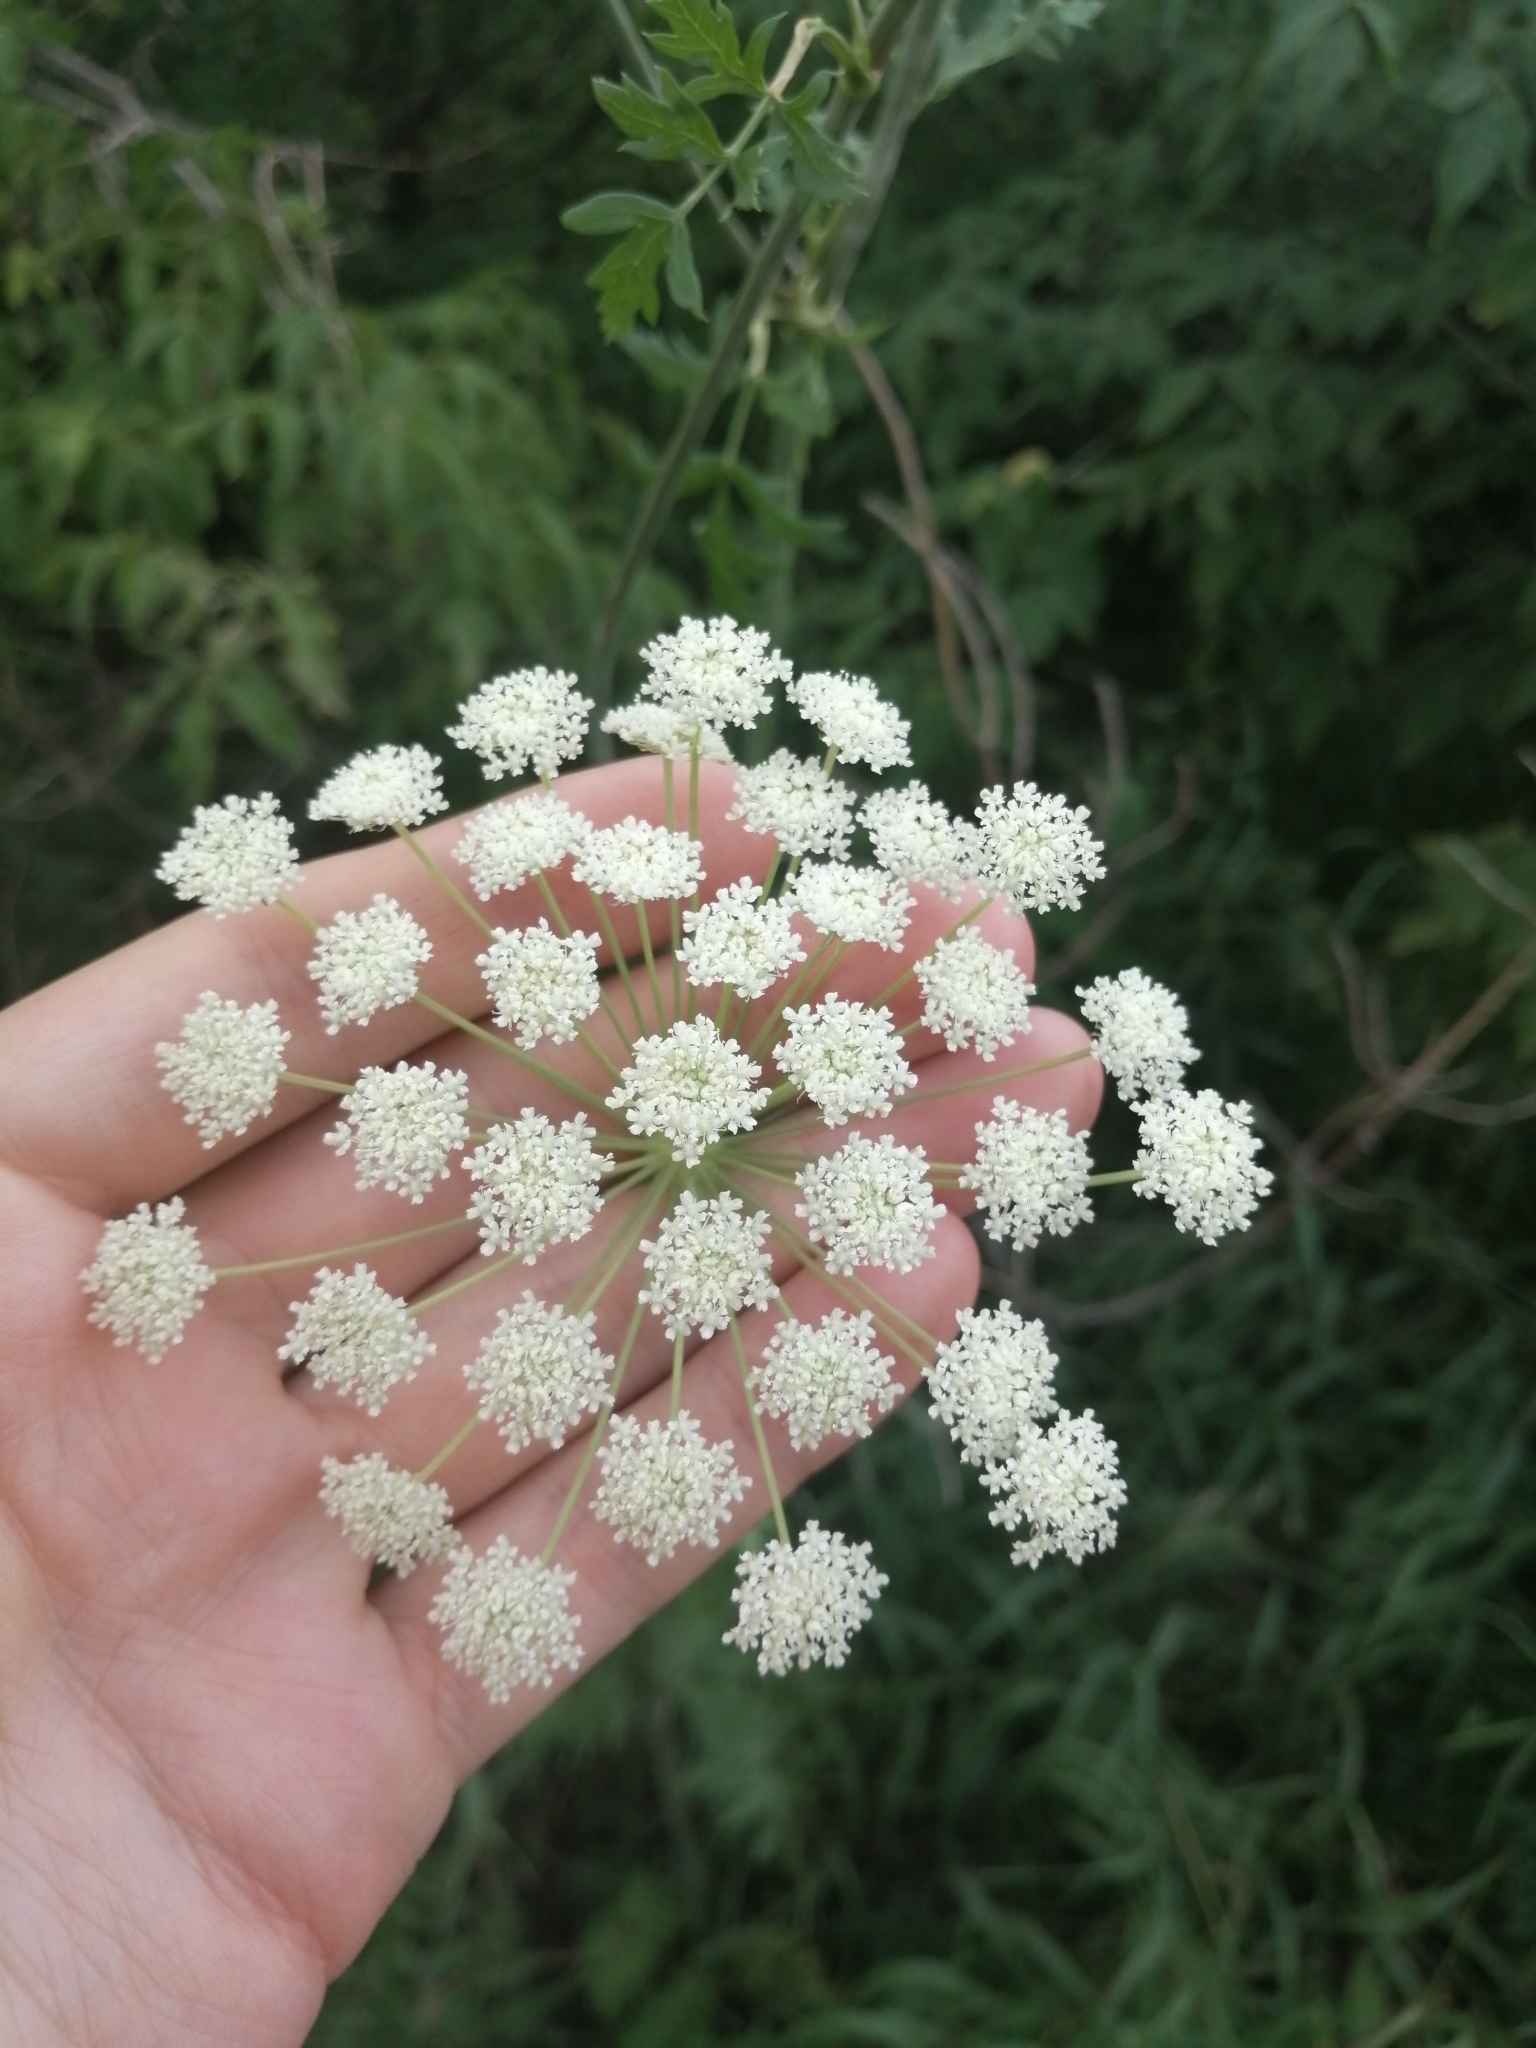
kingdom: Plantae
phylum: Tracheophyta
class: Magnoliopsida
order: Apiales
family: Apiaceae
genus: Seseli
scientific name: Seseli libanotis
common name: Mooncarrot
